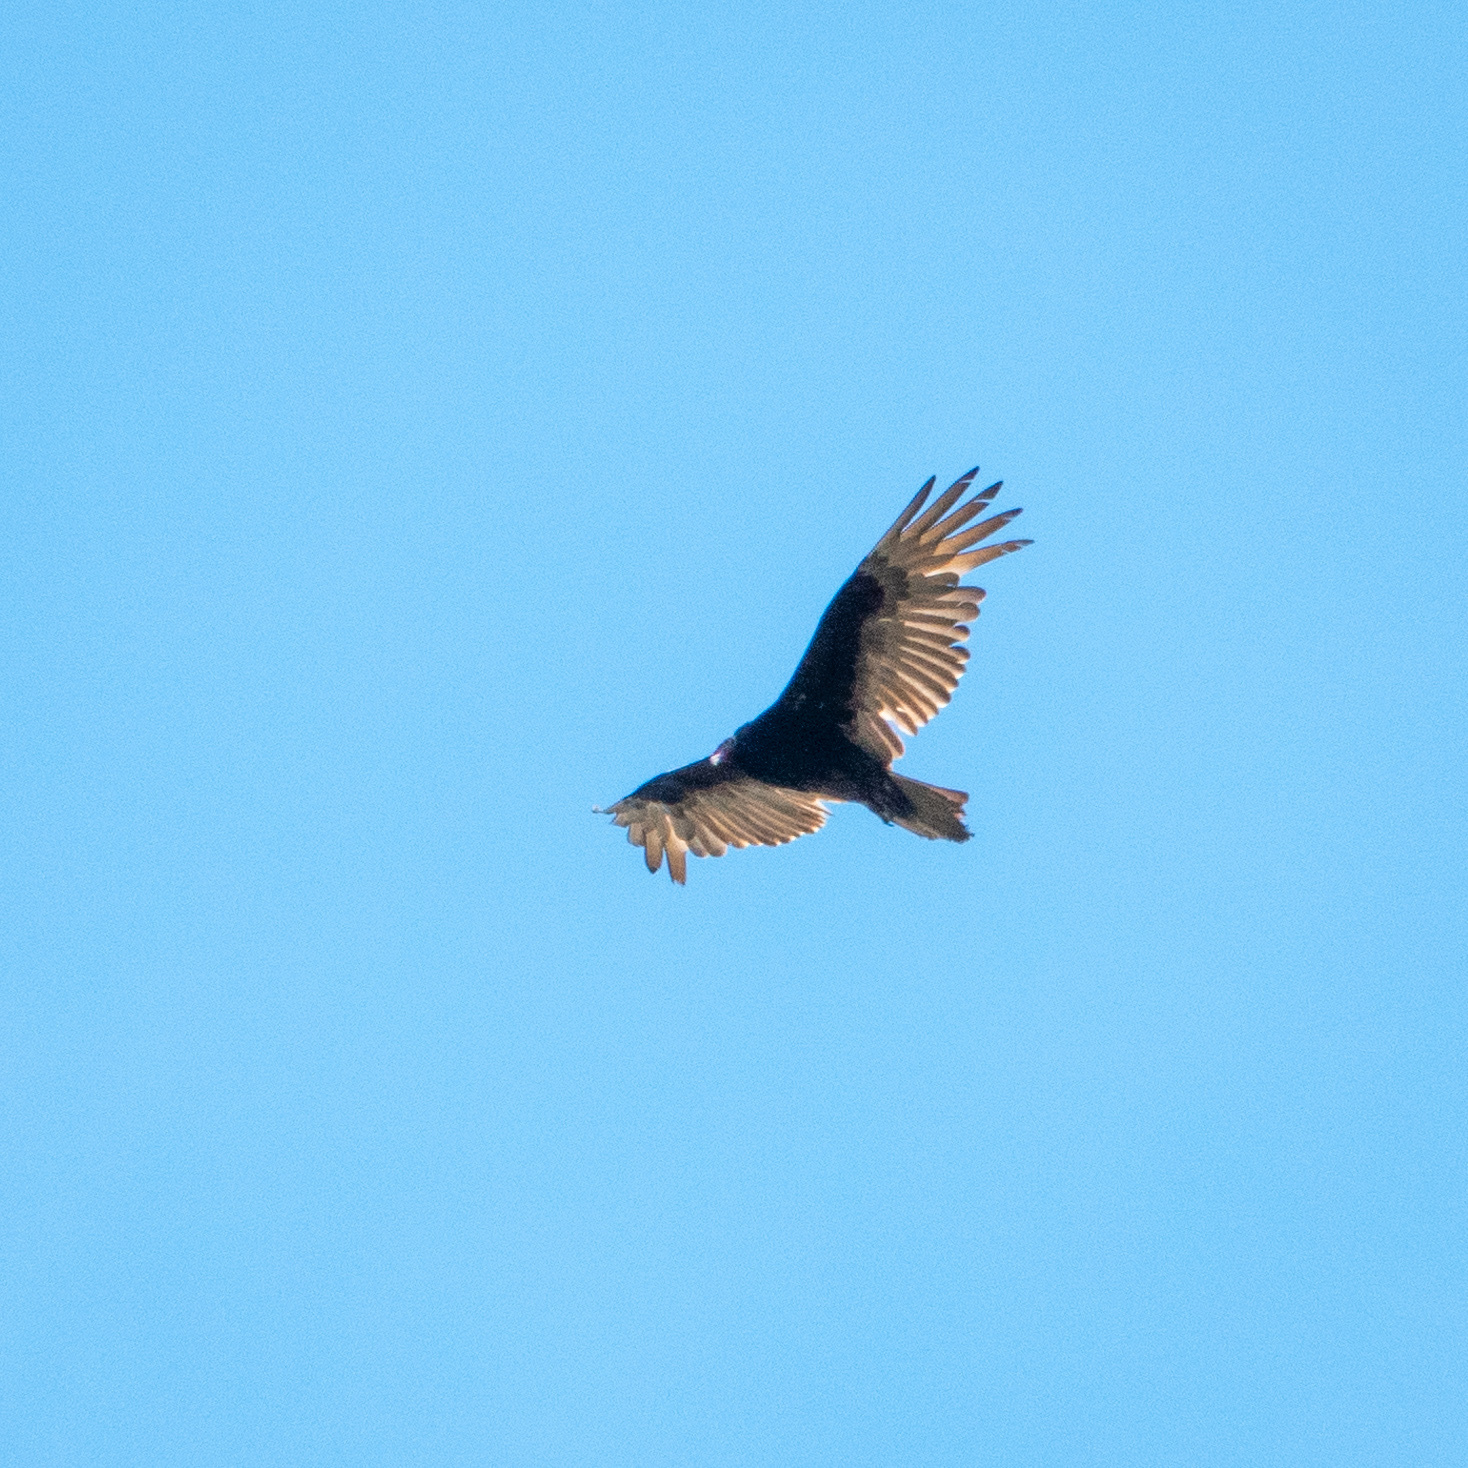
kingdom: Animalia
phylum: Chordata
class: Aves
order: Accipitriformes
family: Cathartidae
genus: Cathartes
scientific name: Cathartes aura
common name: Turkey vulture
